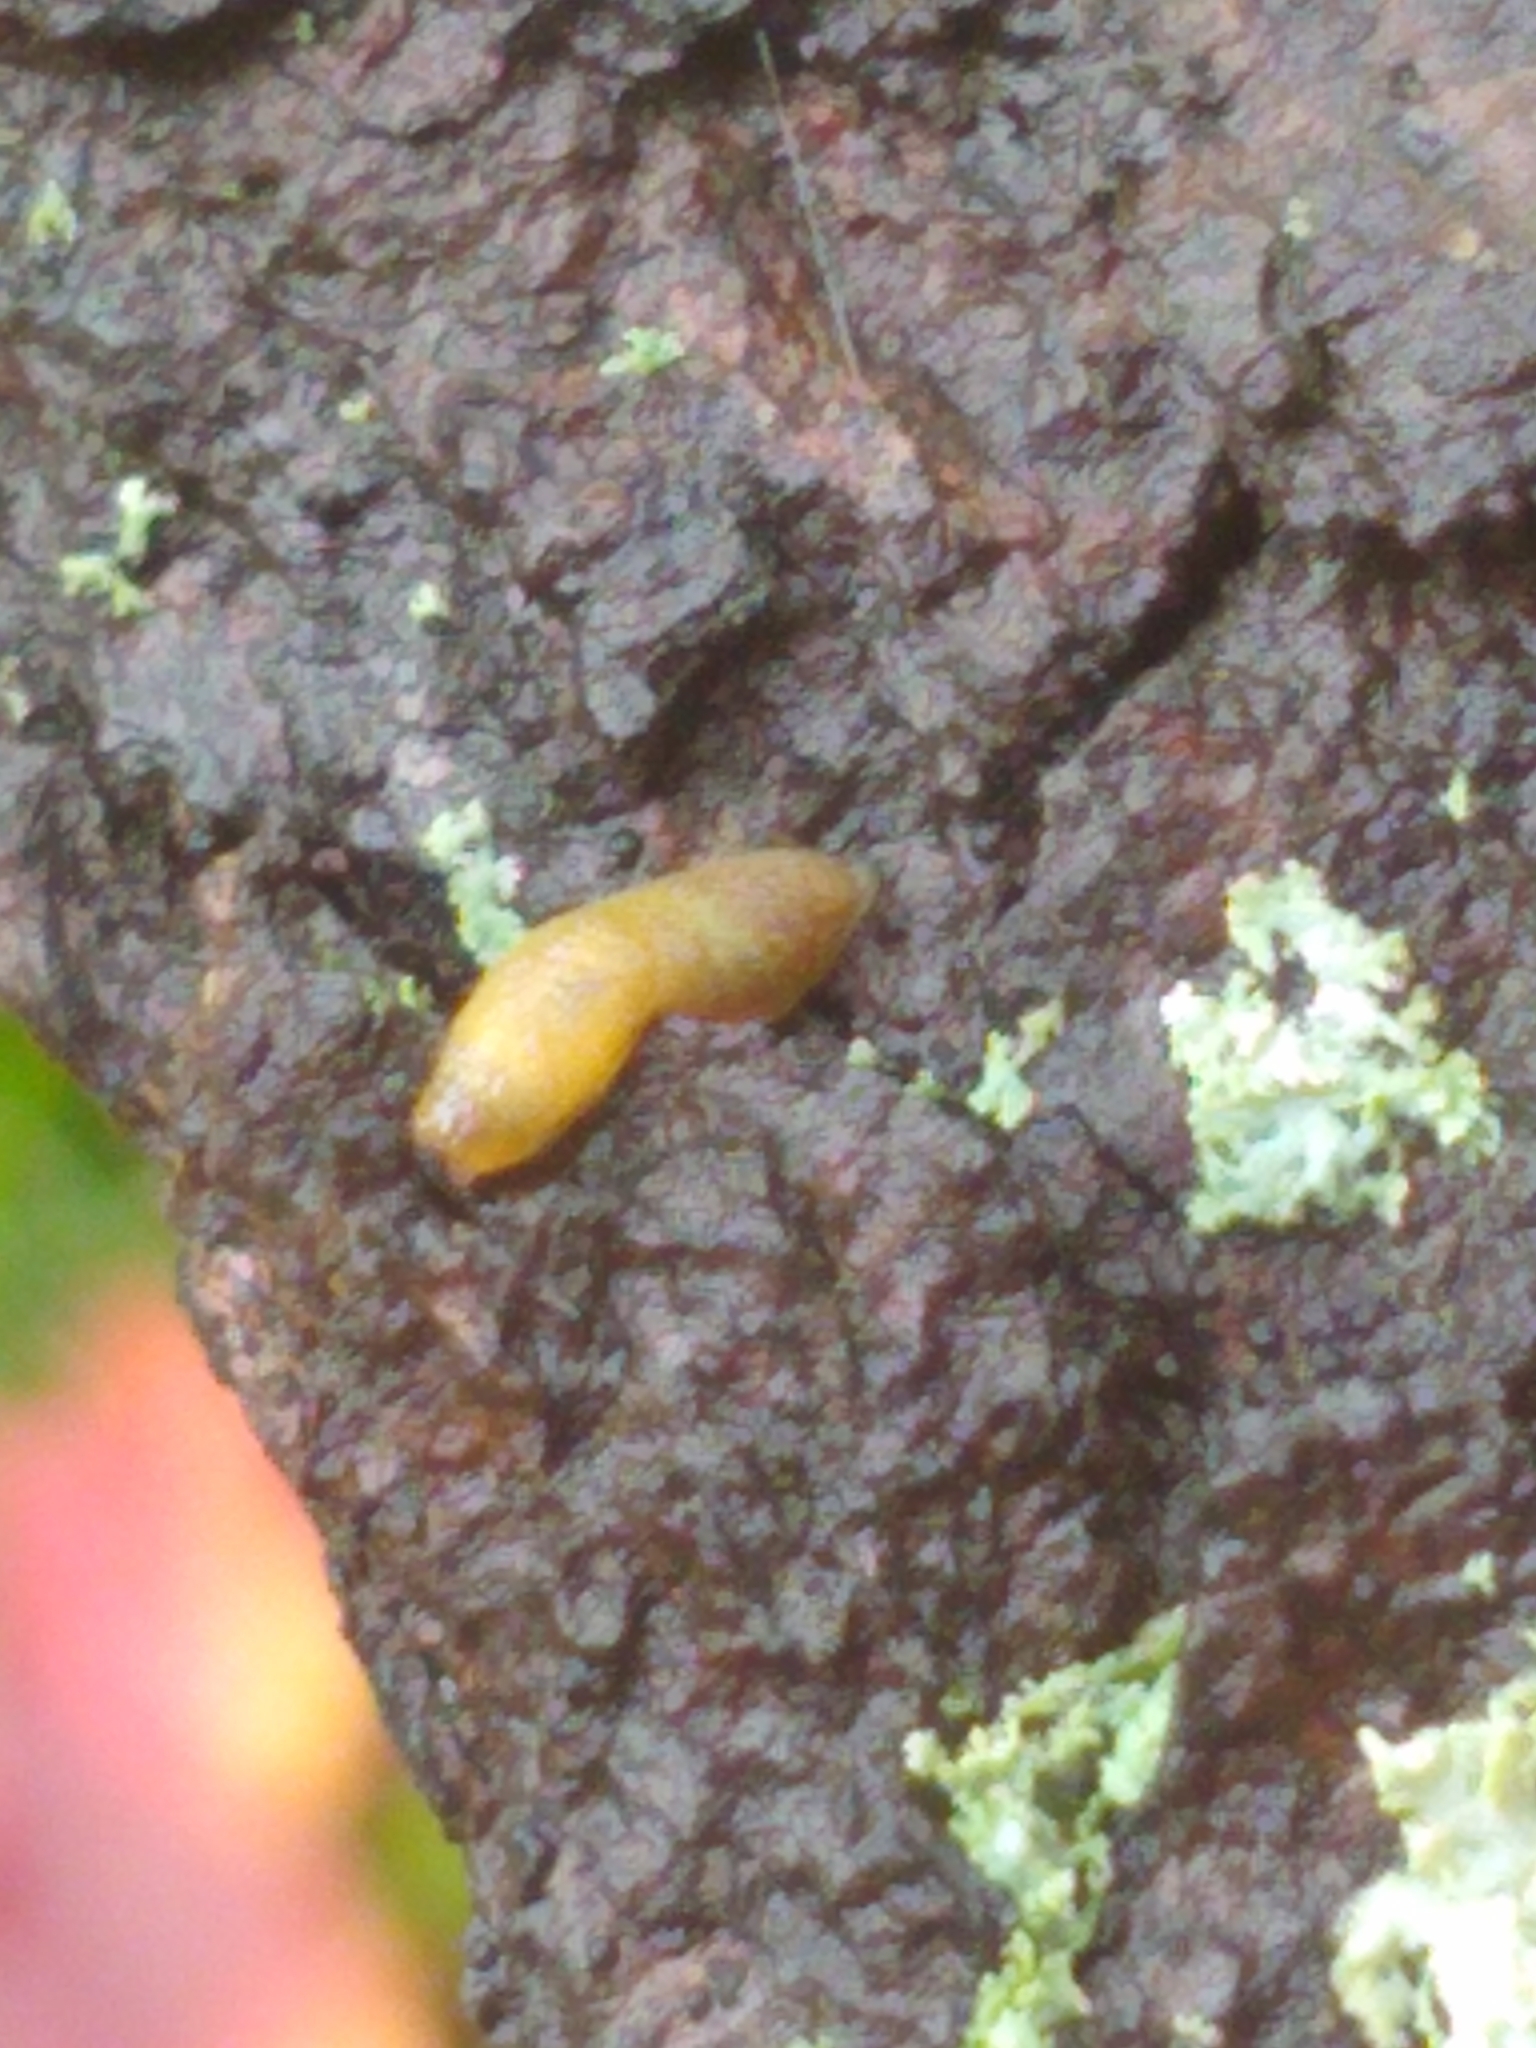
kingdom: Animalia
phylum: Mollusca
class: Gastropoda
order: Stylommatophora
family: Arionidae
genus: Arion
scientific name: Arion subfuscus
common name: Dusky arion
